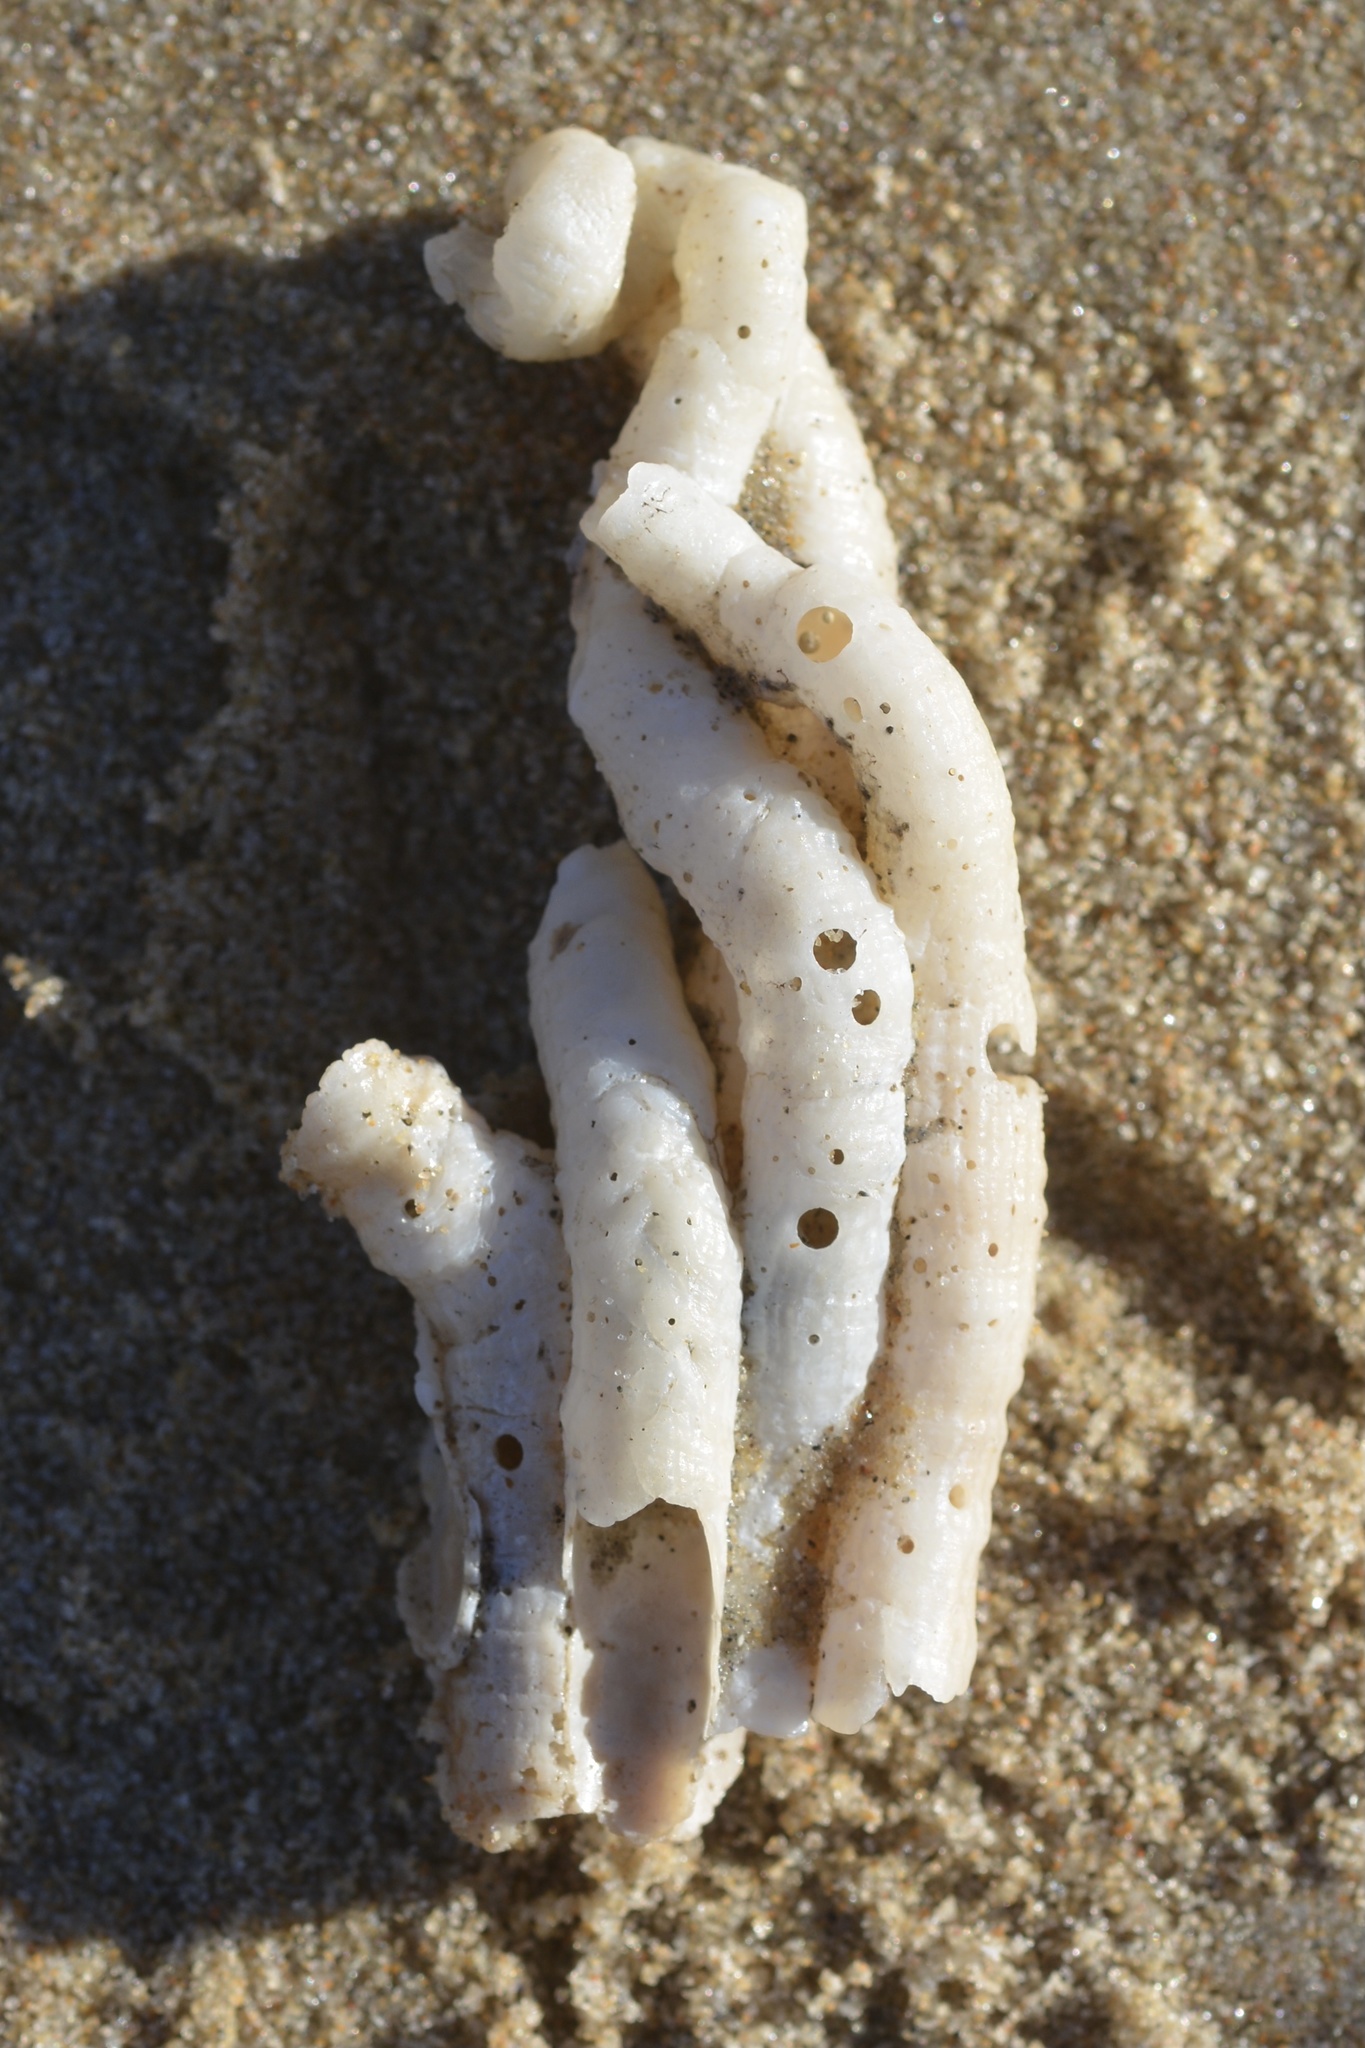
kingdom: Animalia
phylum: Mollusca
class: Gastropoda
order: Littorinimorpha
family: Vermetidae
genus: Thylacodes
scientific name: Thylacodes squamigerus
